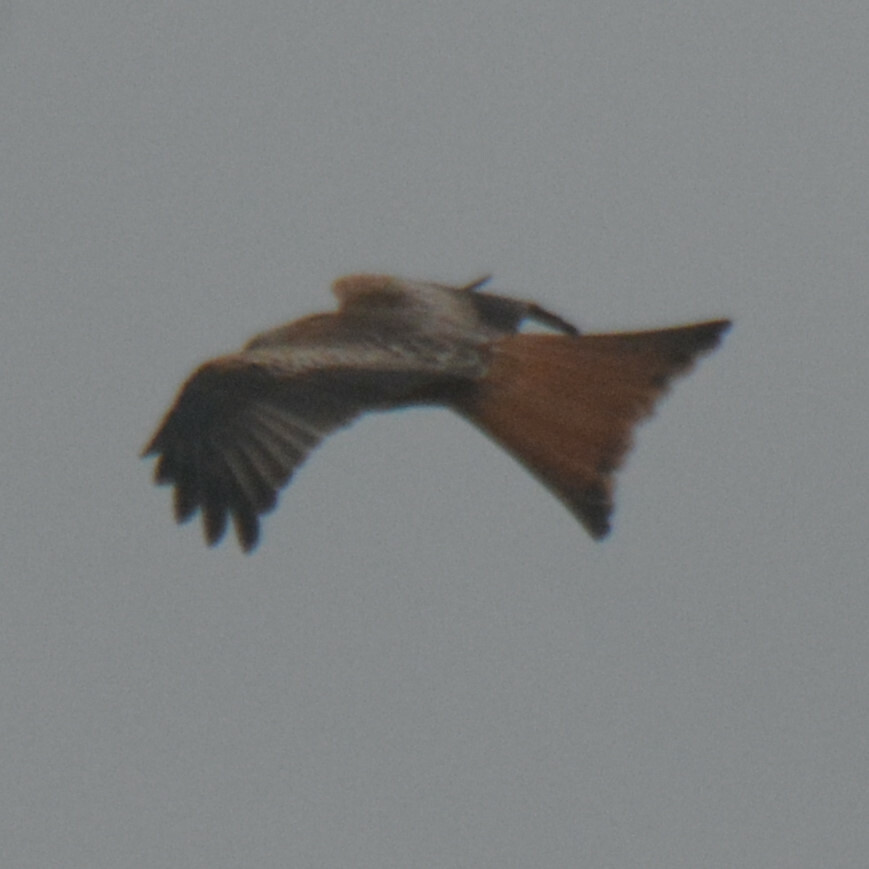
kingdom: Animalia
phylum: Chordata
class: Aves
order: Accipitriformes
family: Accipitridae
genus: Milvus
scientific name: Milvus milvus
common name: Red kite
